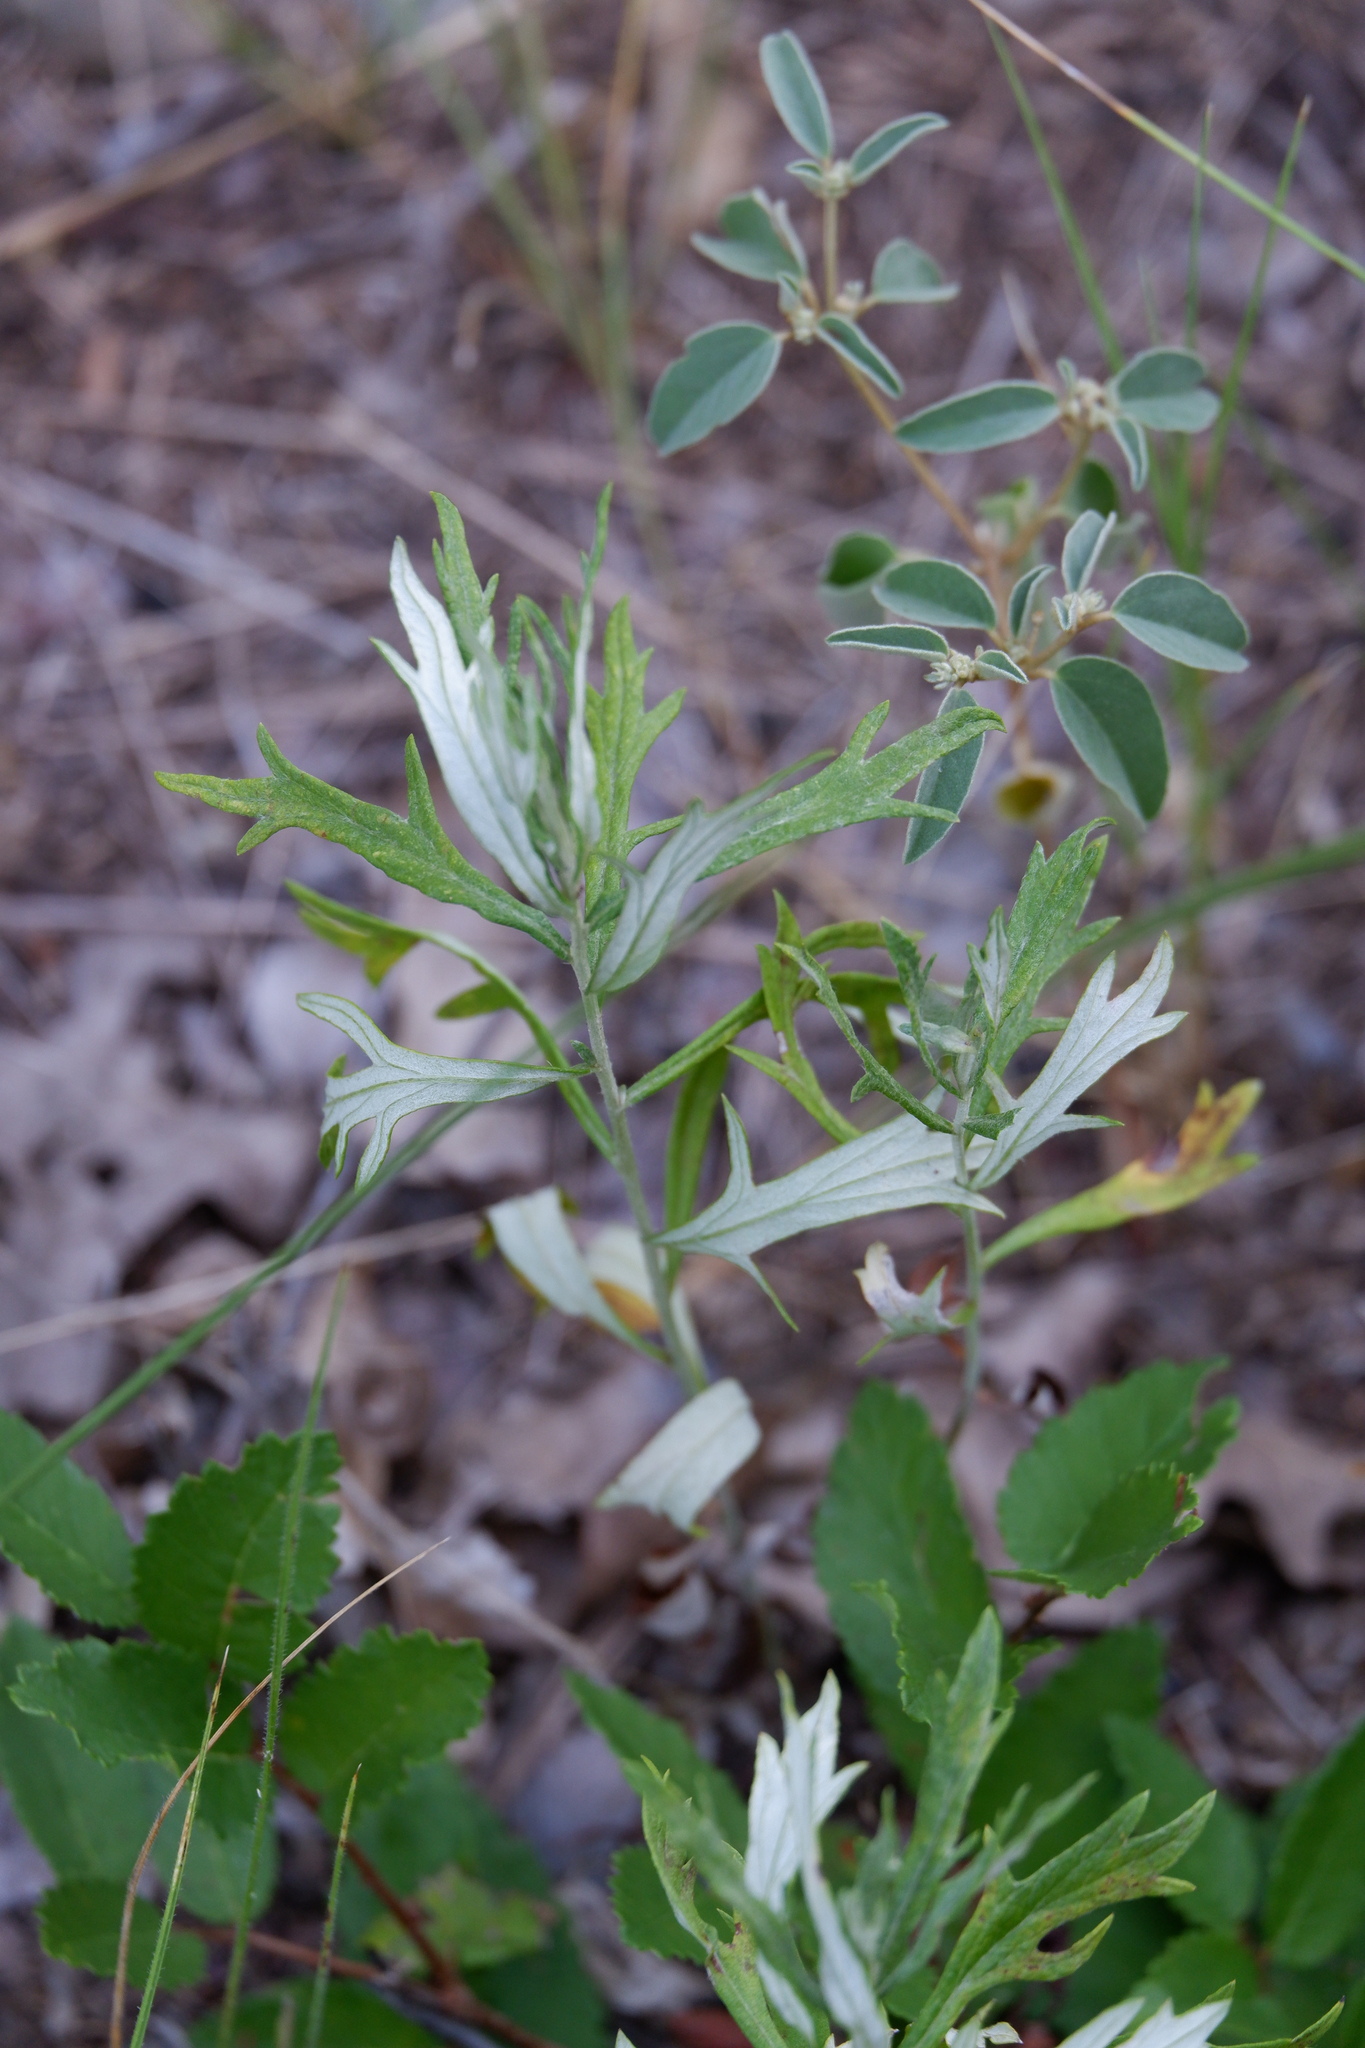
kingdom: Plantae
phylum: Tracheophyta
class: Magnoliopsida
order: Asterales
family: Asteraceae
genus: Artemisia
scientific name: Artemisia ludoviciana
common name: Western mugwort
